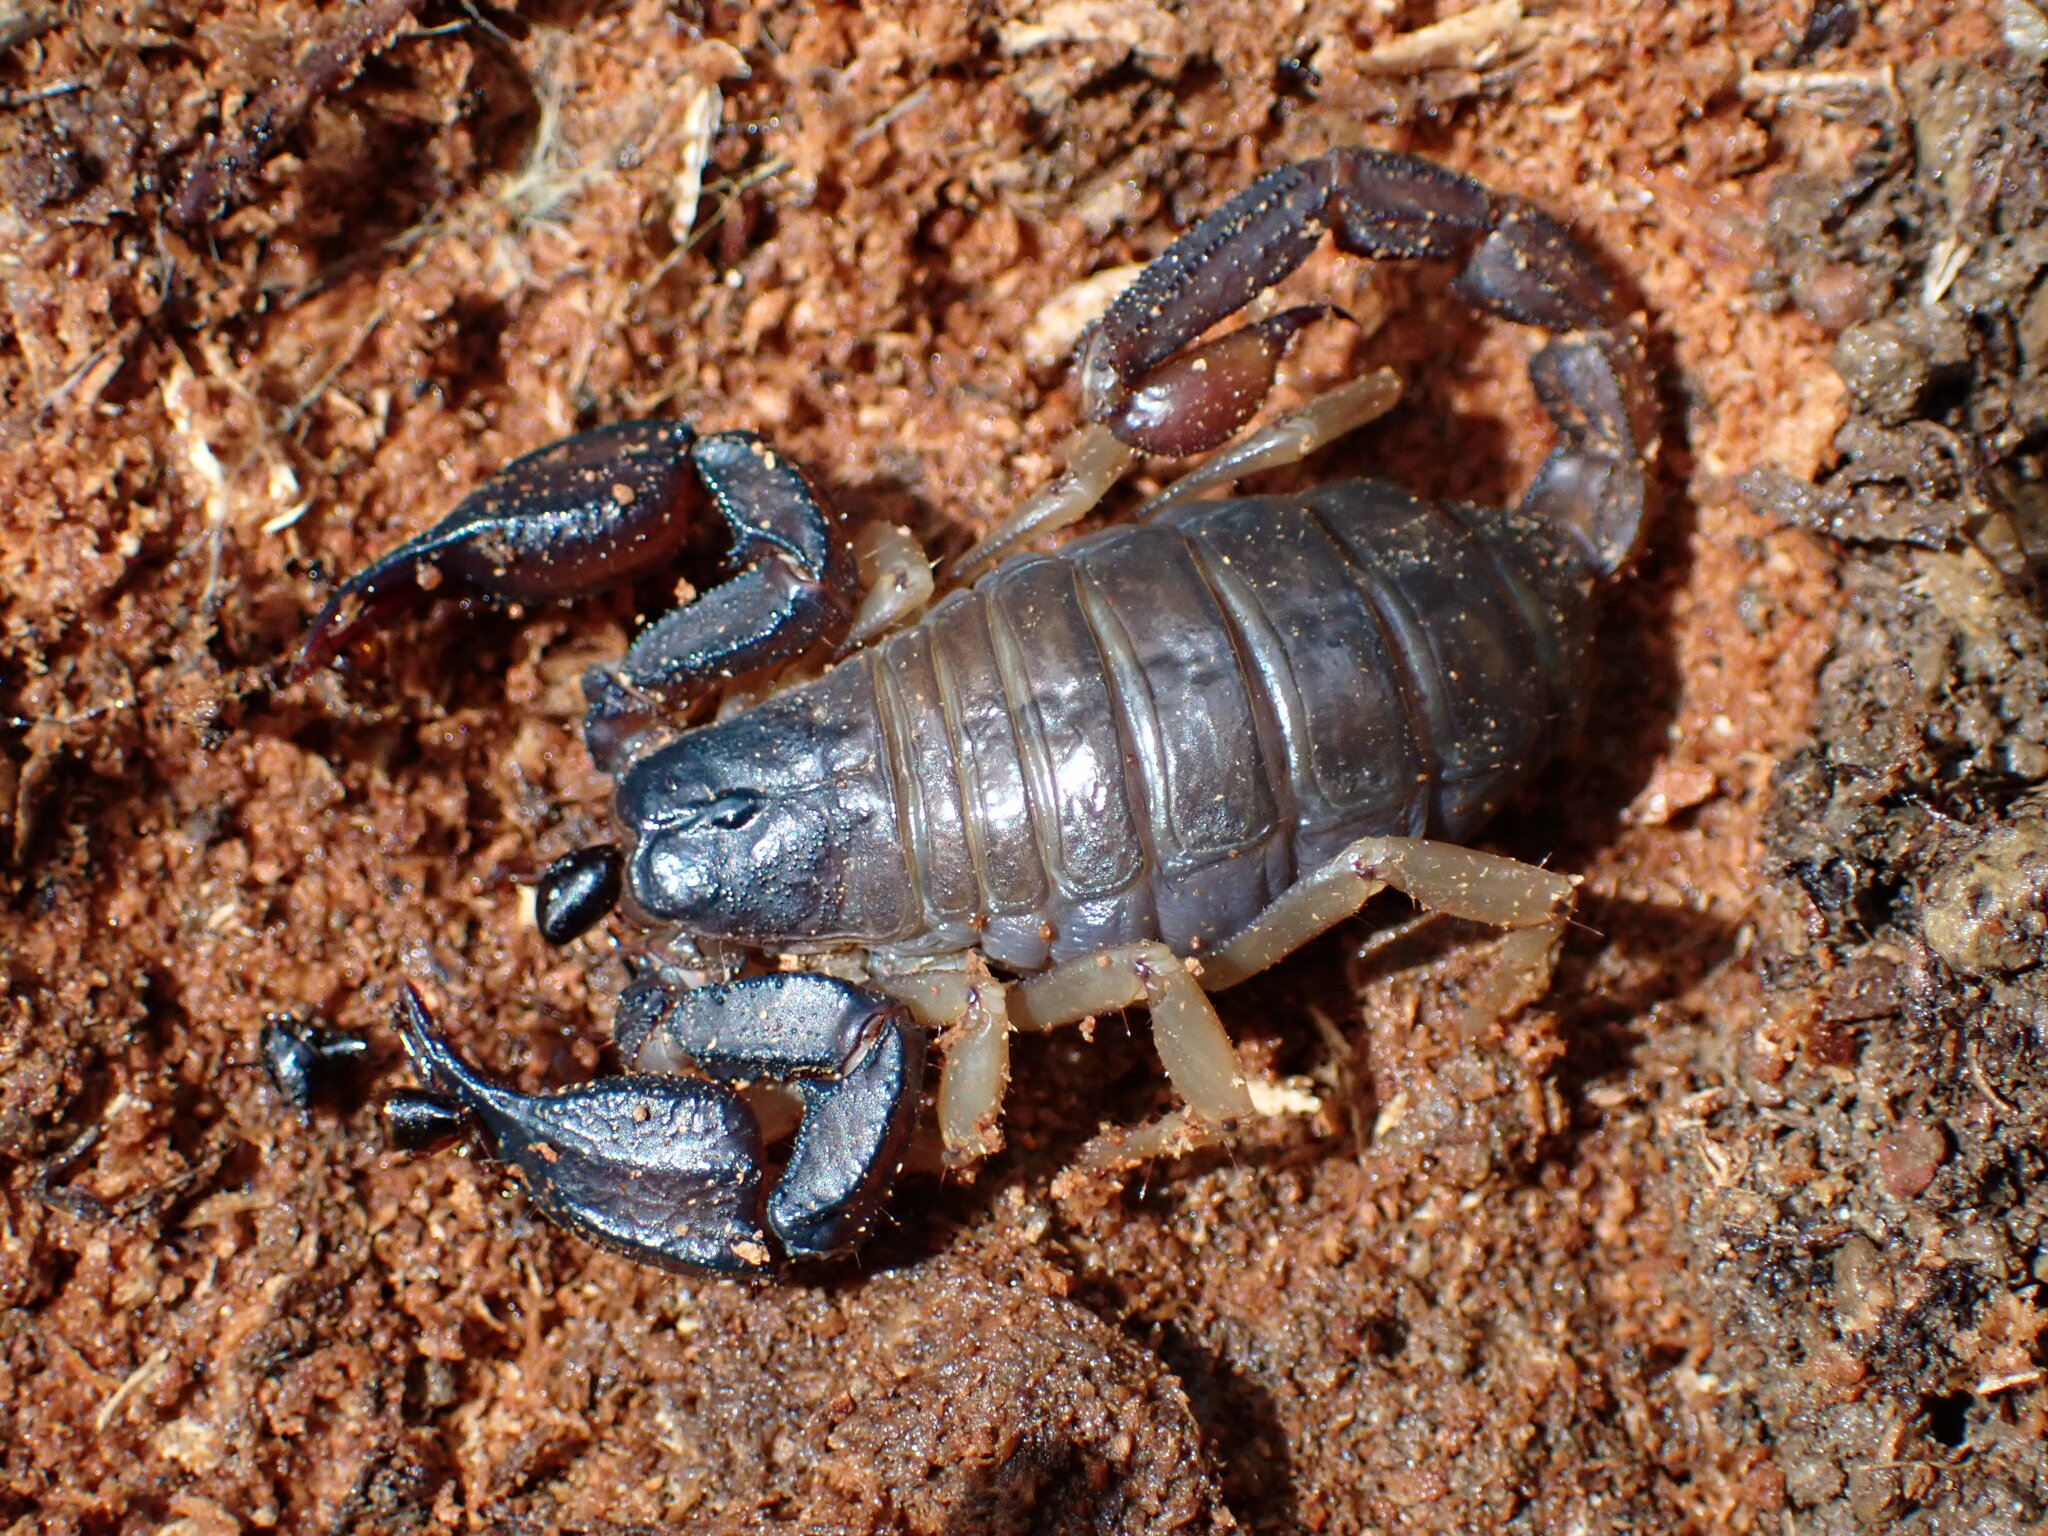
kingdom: Animalia
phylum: Arthropoda
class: Arachnida
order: Scorpiones
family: Chactidae
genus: Uroctonus
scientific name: Uroctonus mordax
